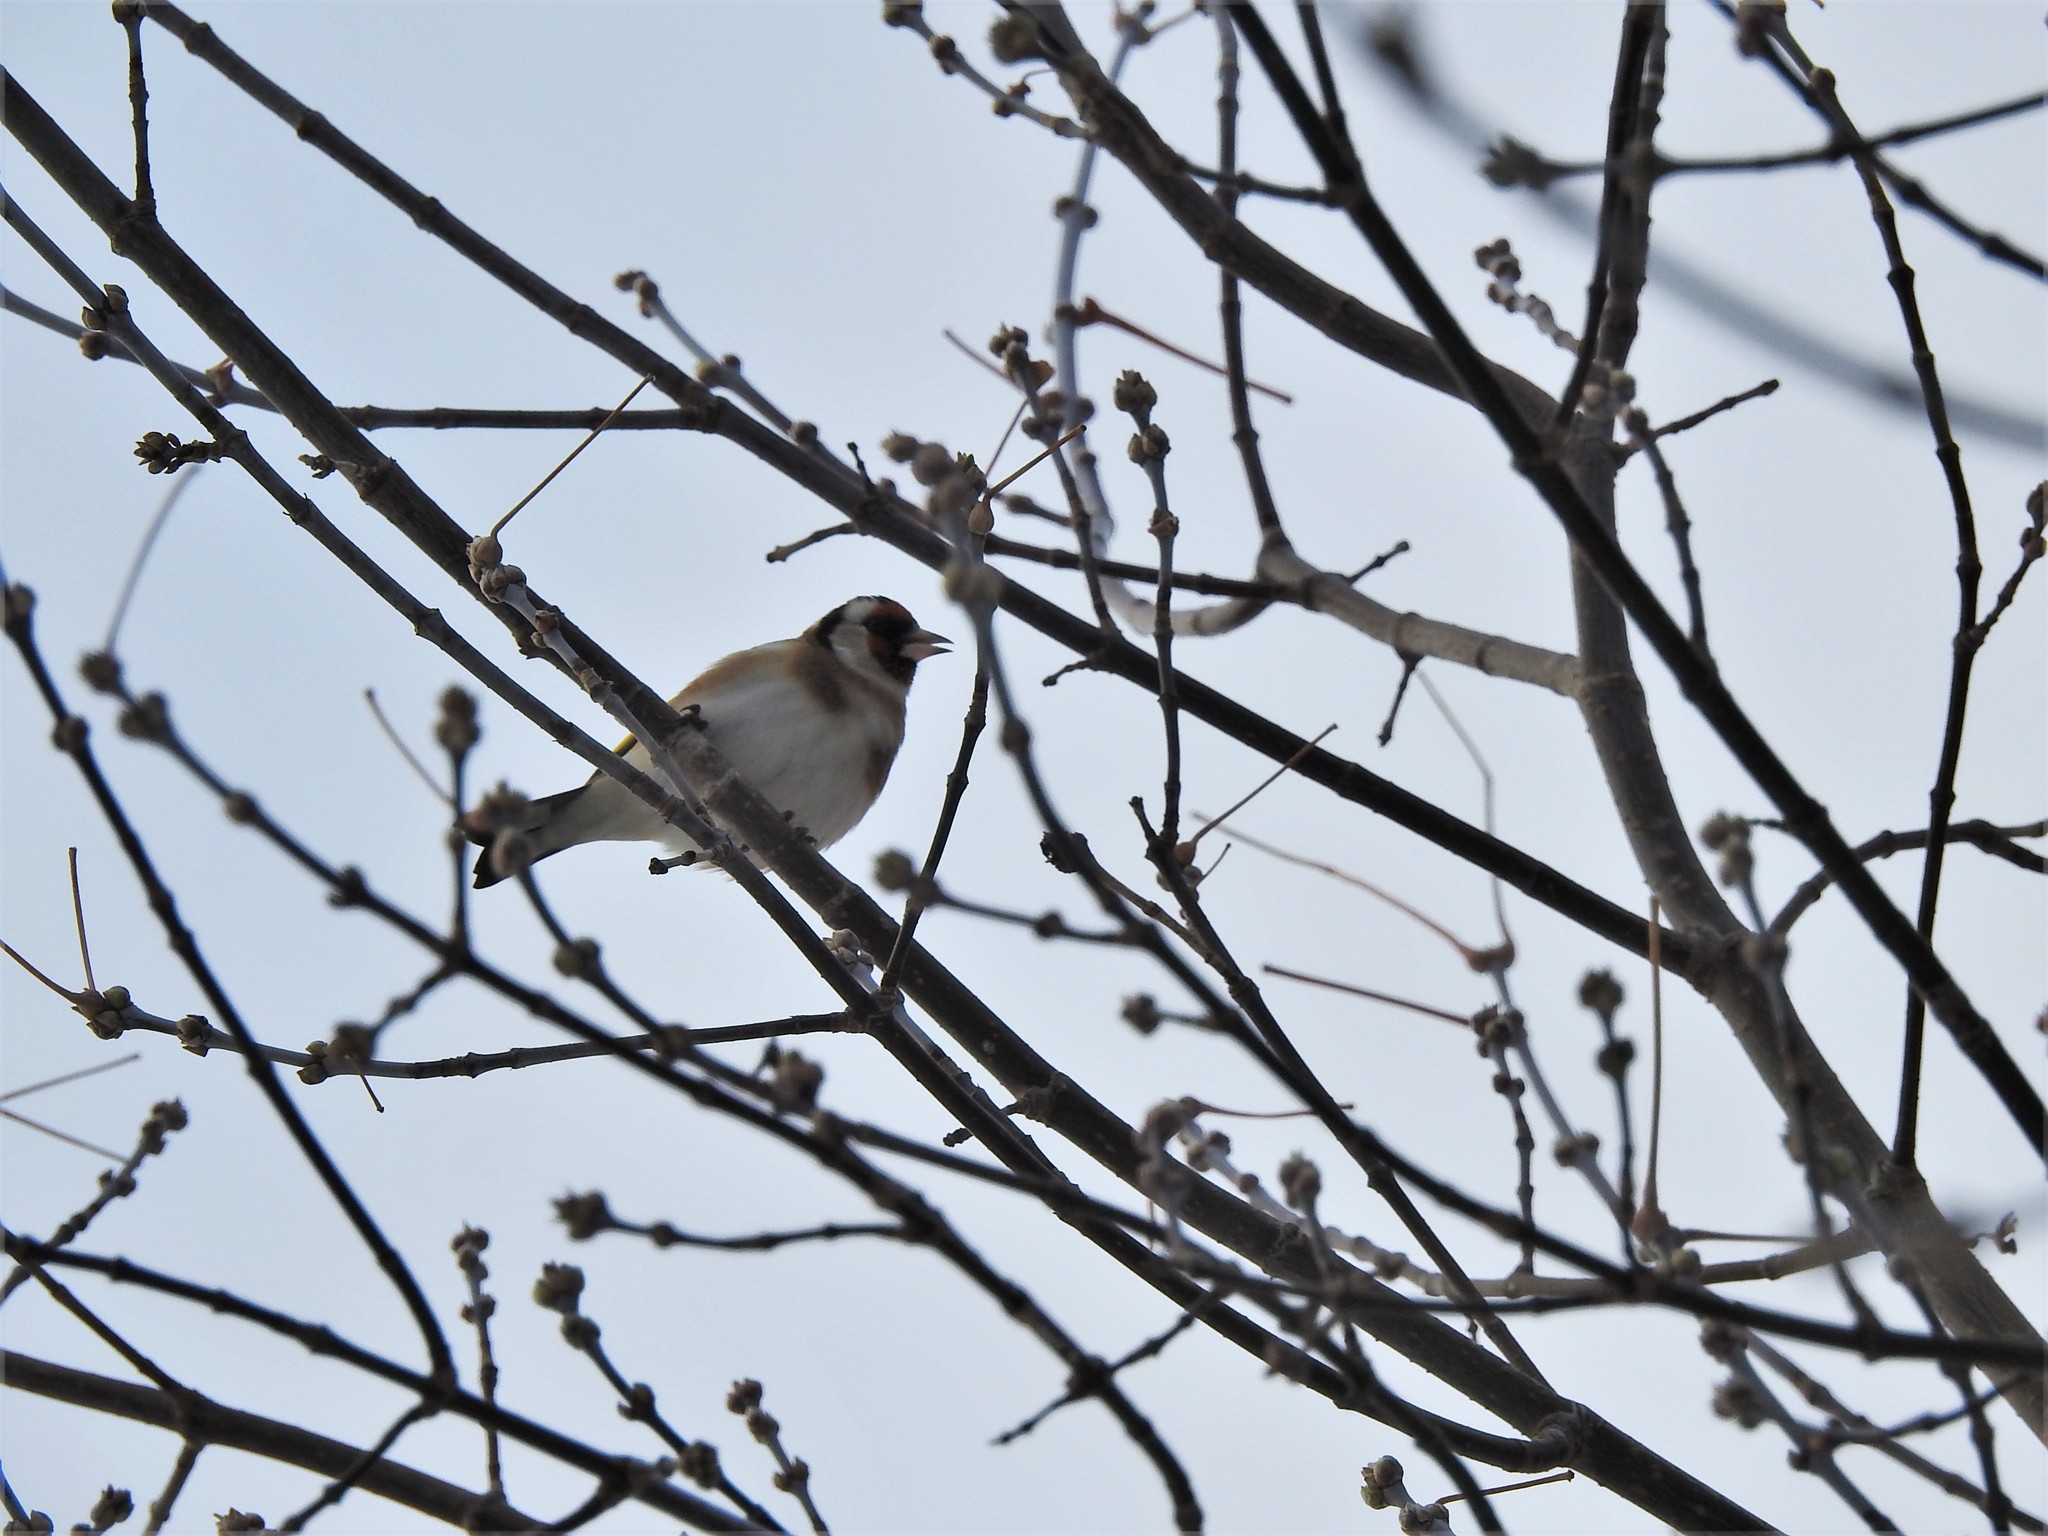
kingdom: Animalia
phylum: Chordata
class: Aves
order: Passeriformes
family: Fringillidae
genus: Carduelis
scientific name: Carduelis carduelis
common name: European goldfinch
